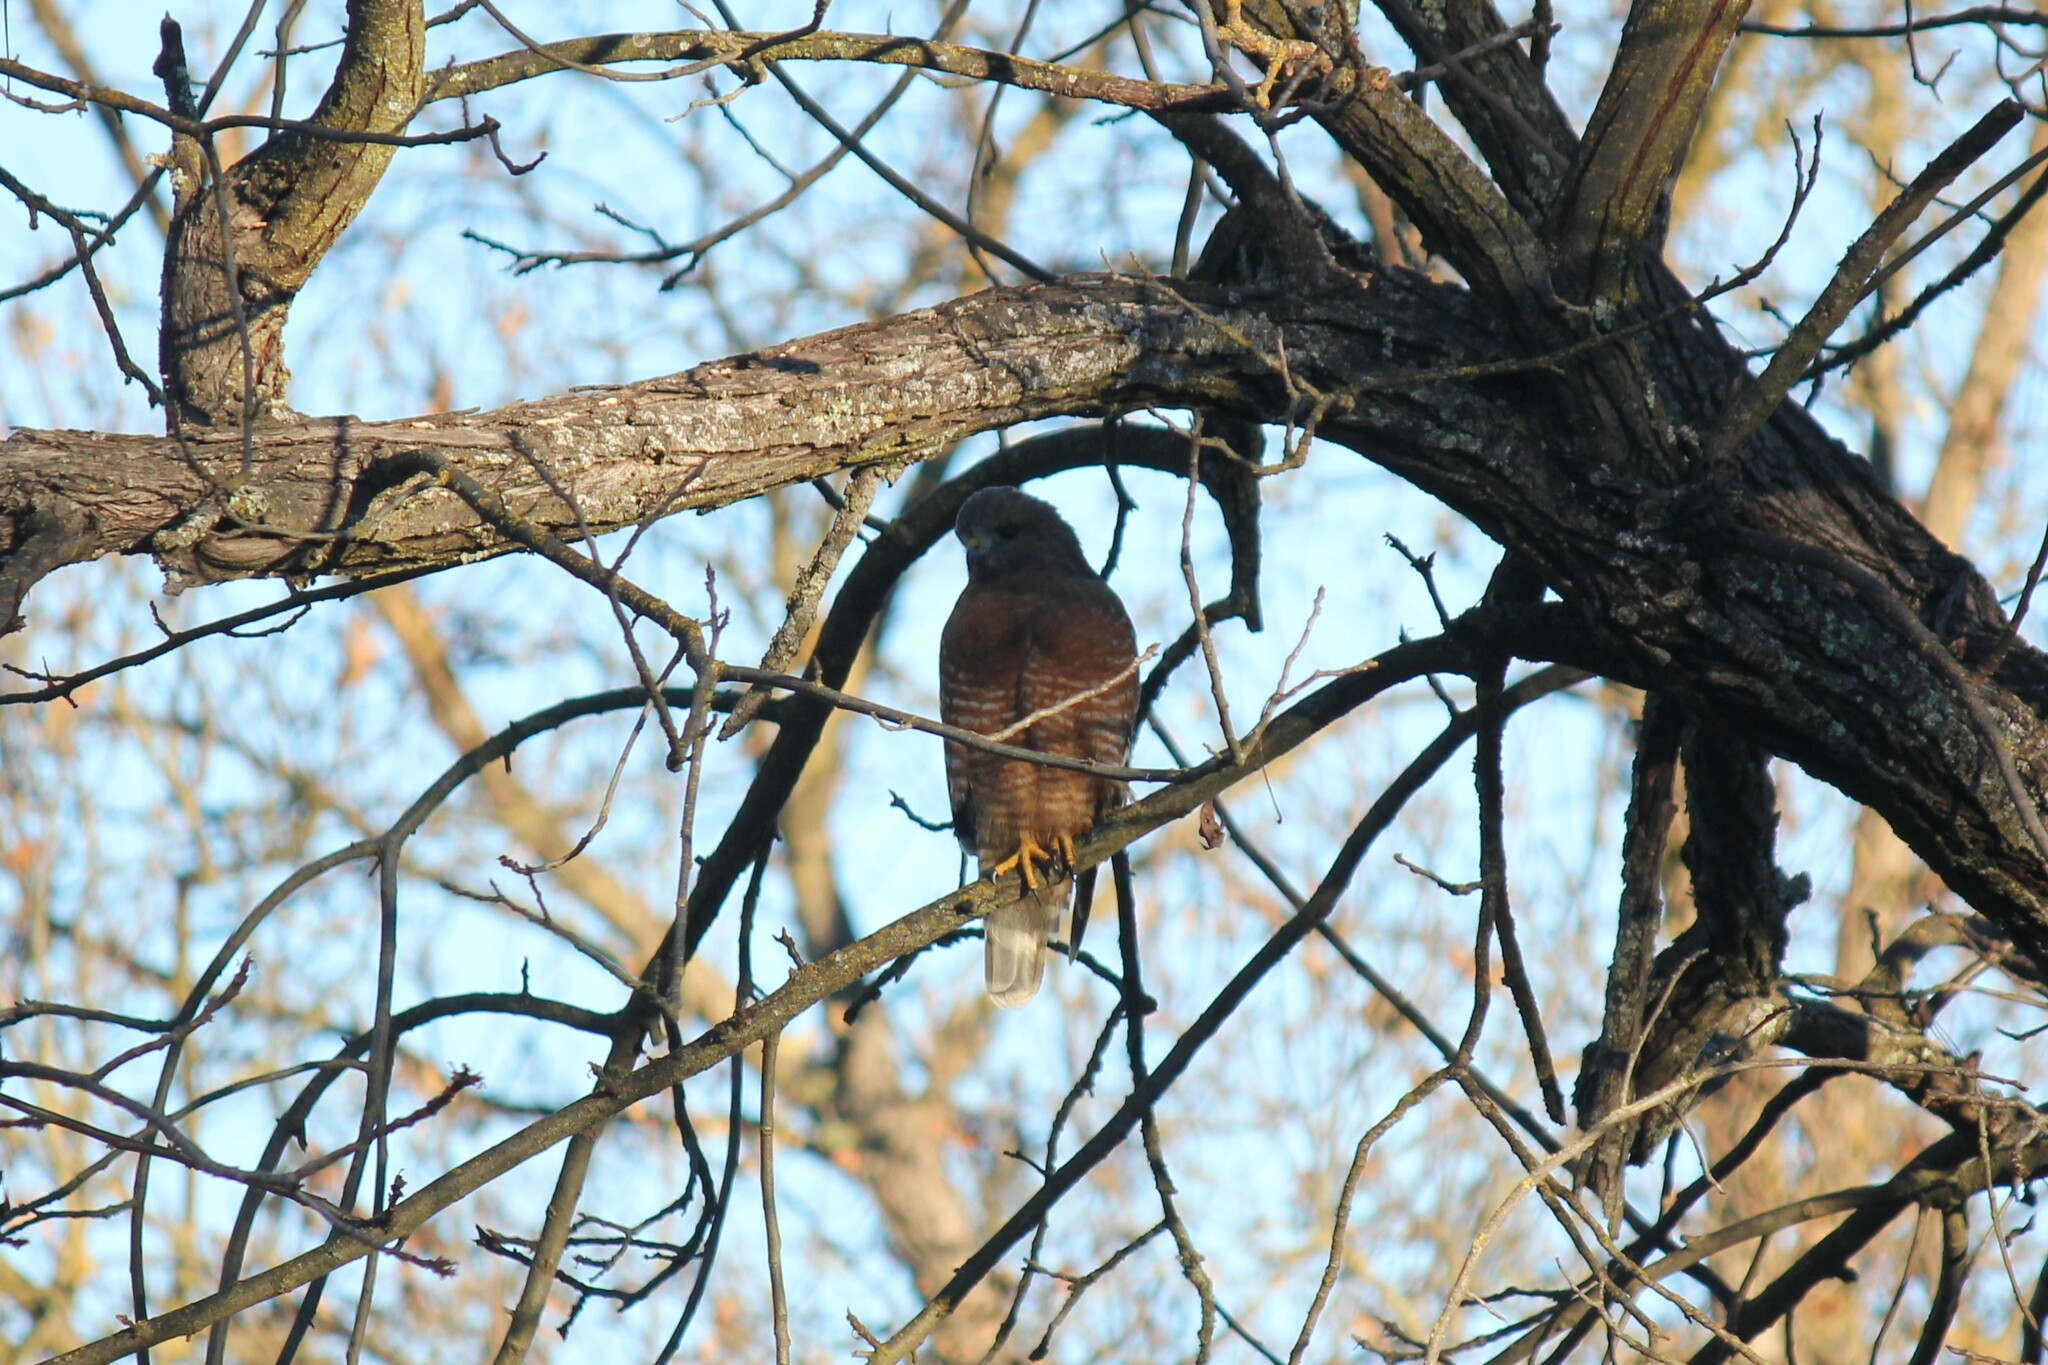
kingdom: Animalia
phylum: Chordata
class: Aves
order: Accipitriformes
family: Accipitridae
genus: Buteo
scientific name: Buteo lineatus
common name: Red-shouldered hawk
